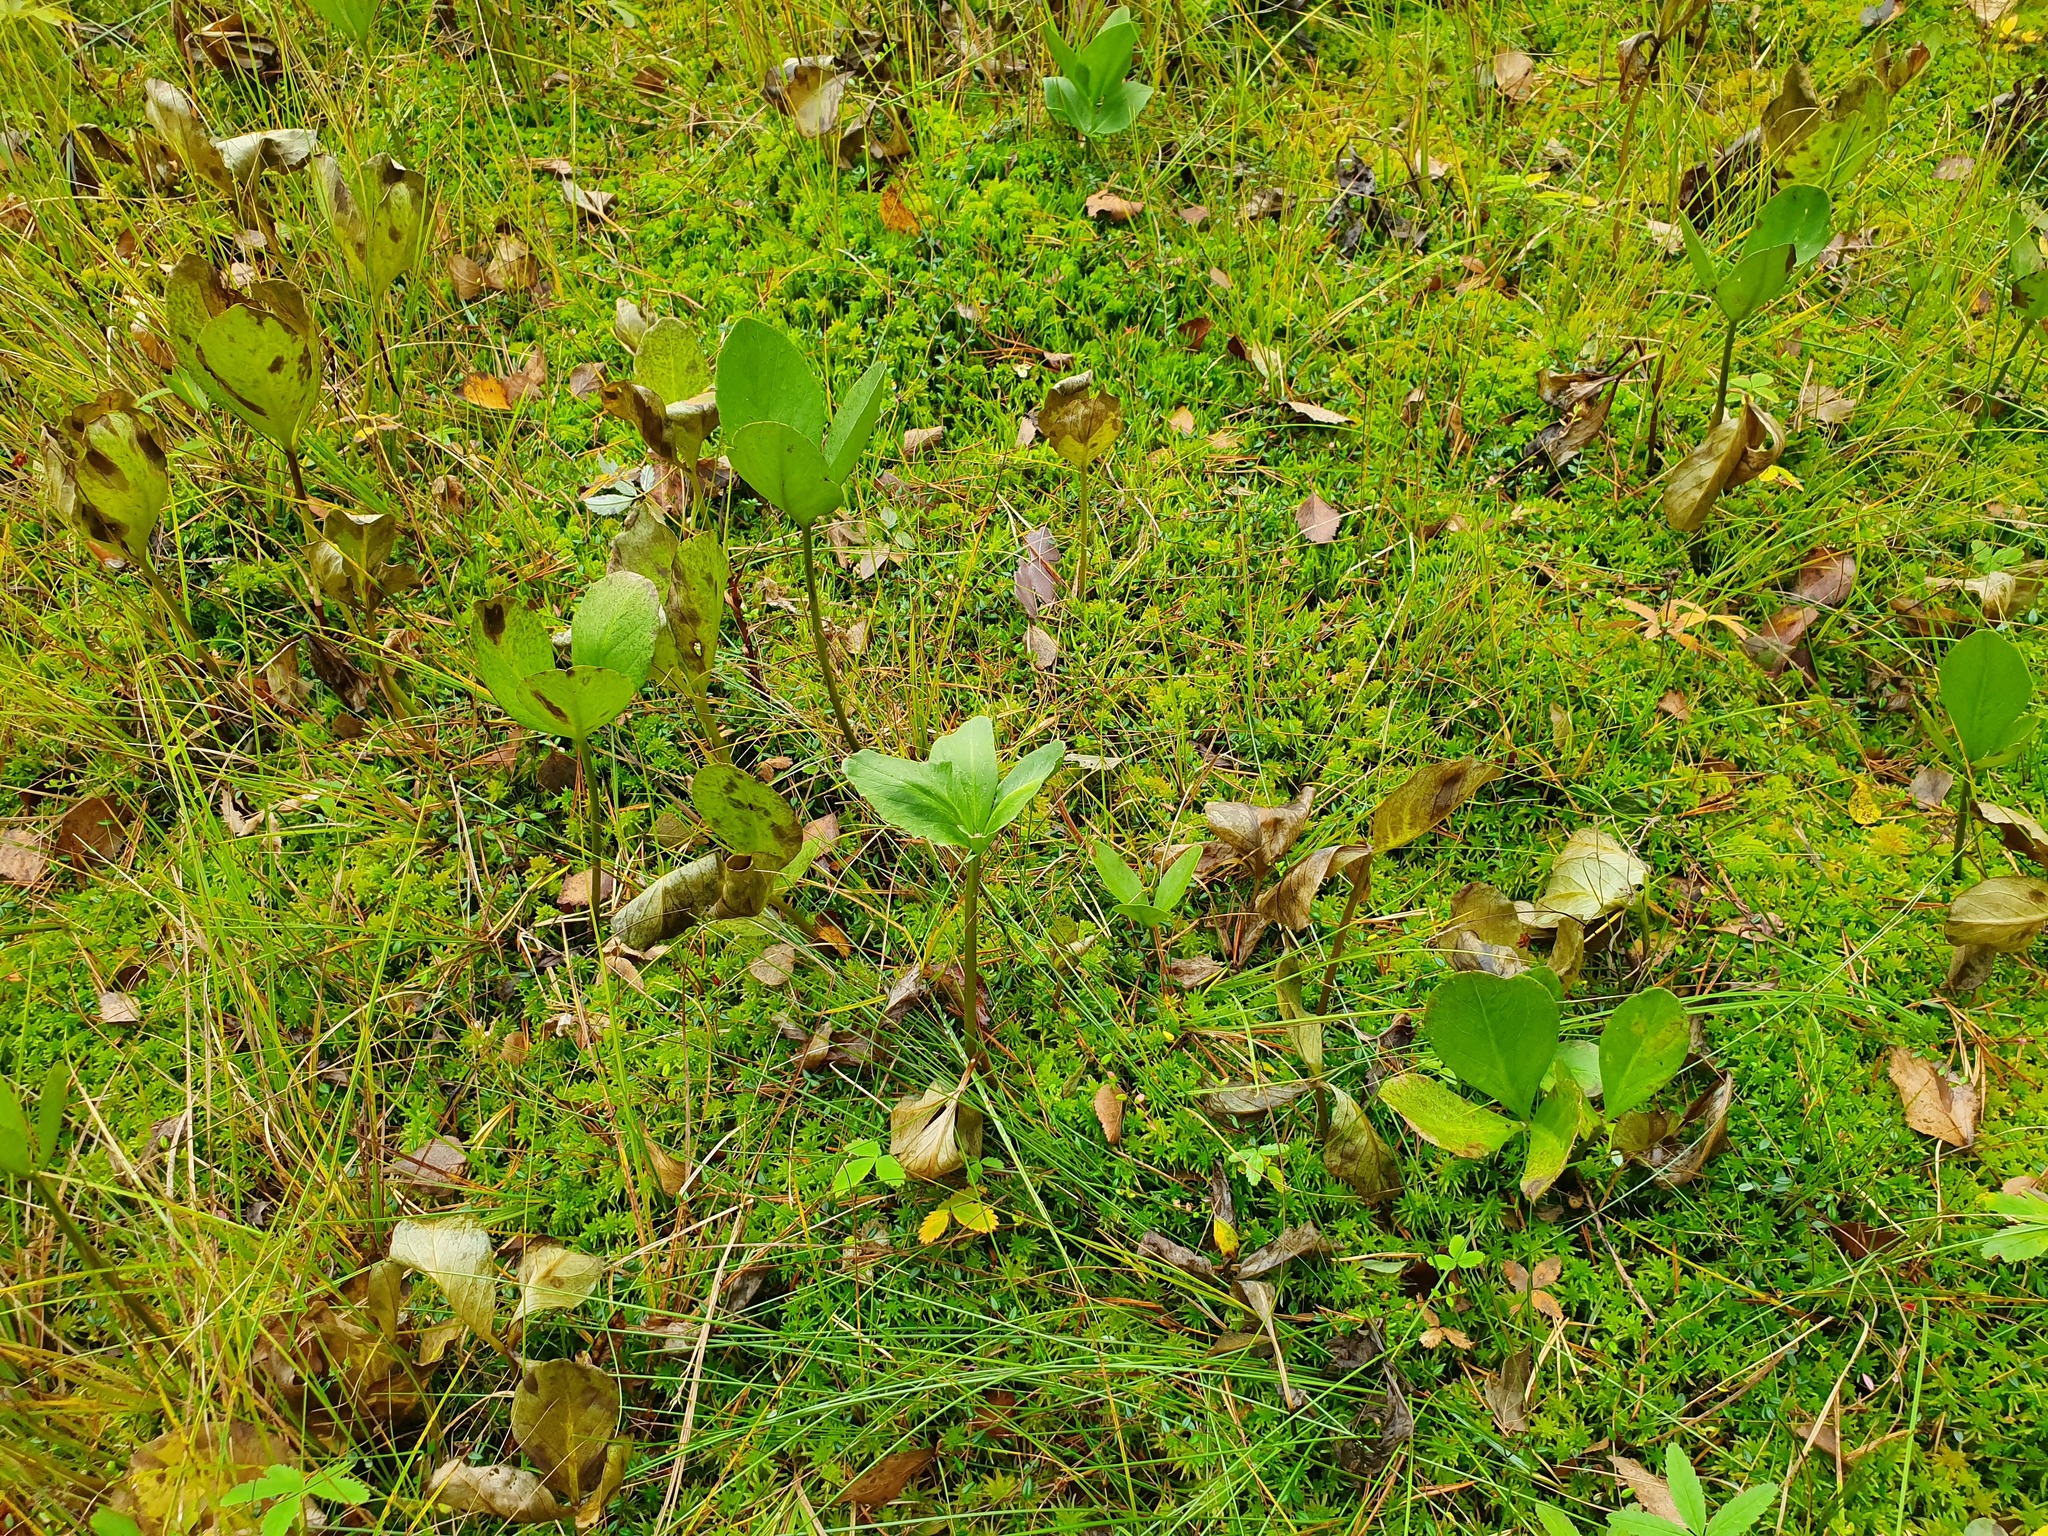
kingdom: Plantae
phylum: Tracheophyta
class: Magnoliopsida
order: Asterales
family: Menyanthaceae
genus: Menyanthes
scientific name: Menyanthes trifoliata
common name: Bogbean
